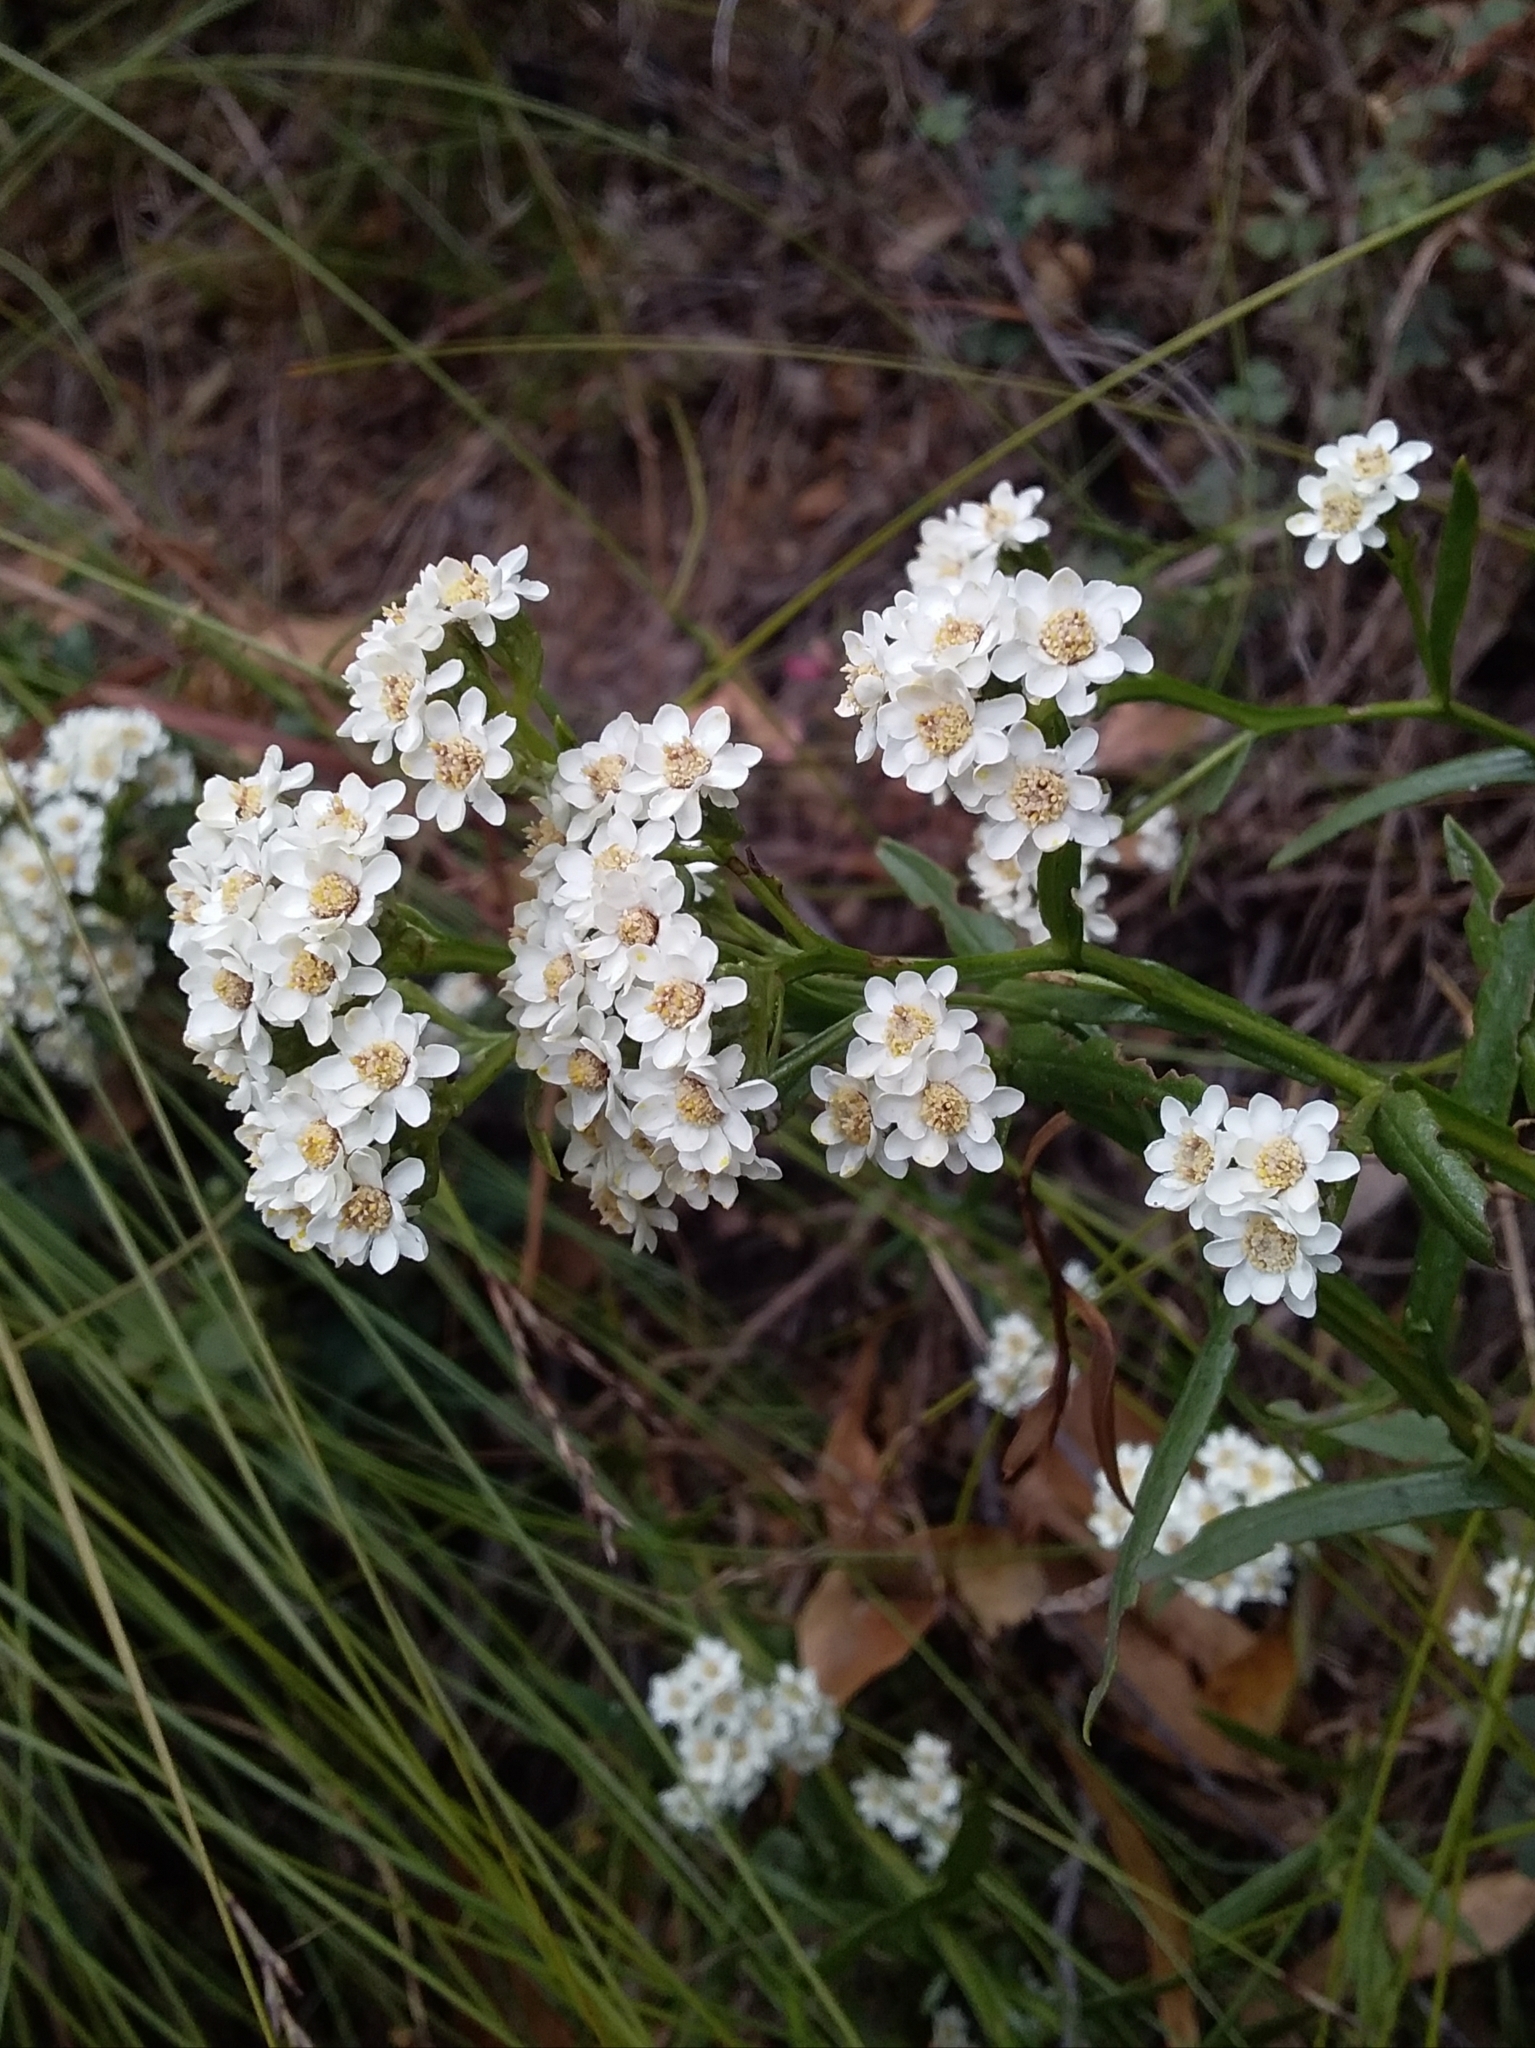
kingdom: Plantae
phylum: Tracheophyta
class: Magnoliopsida
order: Asterales
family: Asteraceae
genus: Ixodia
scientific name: Ixodia achillaeoides
